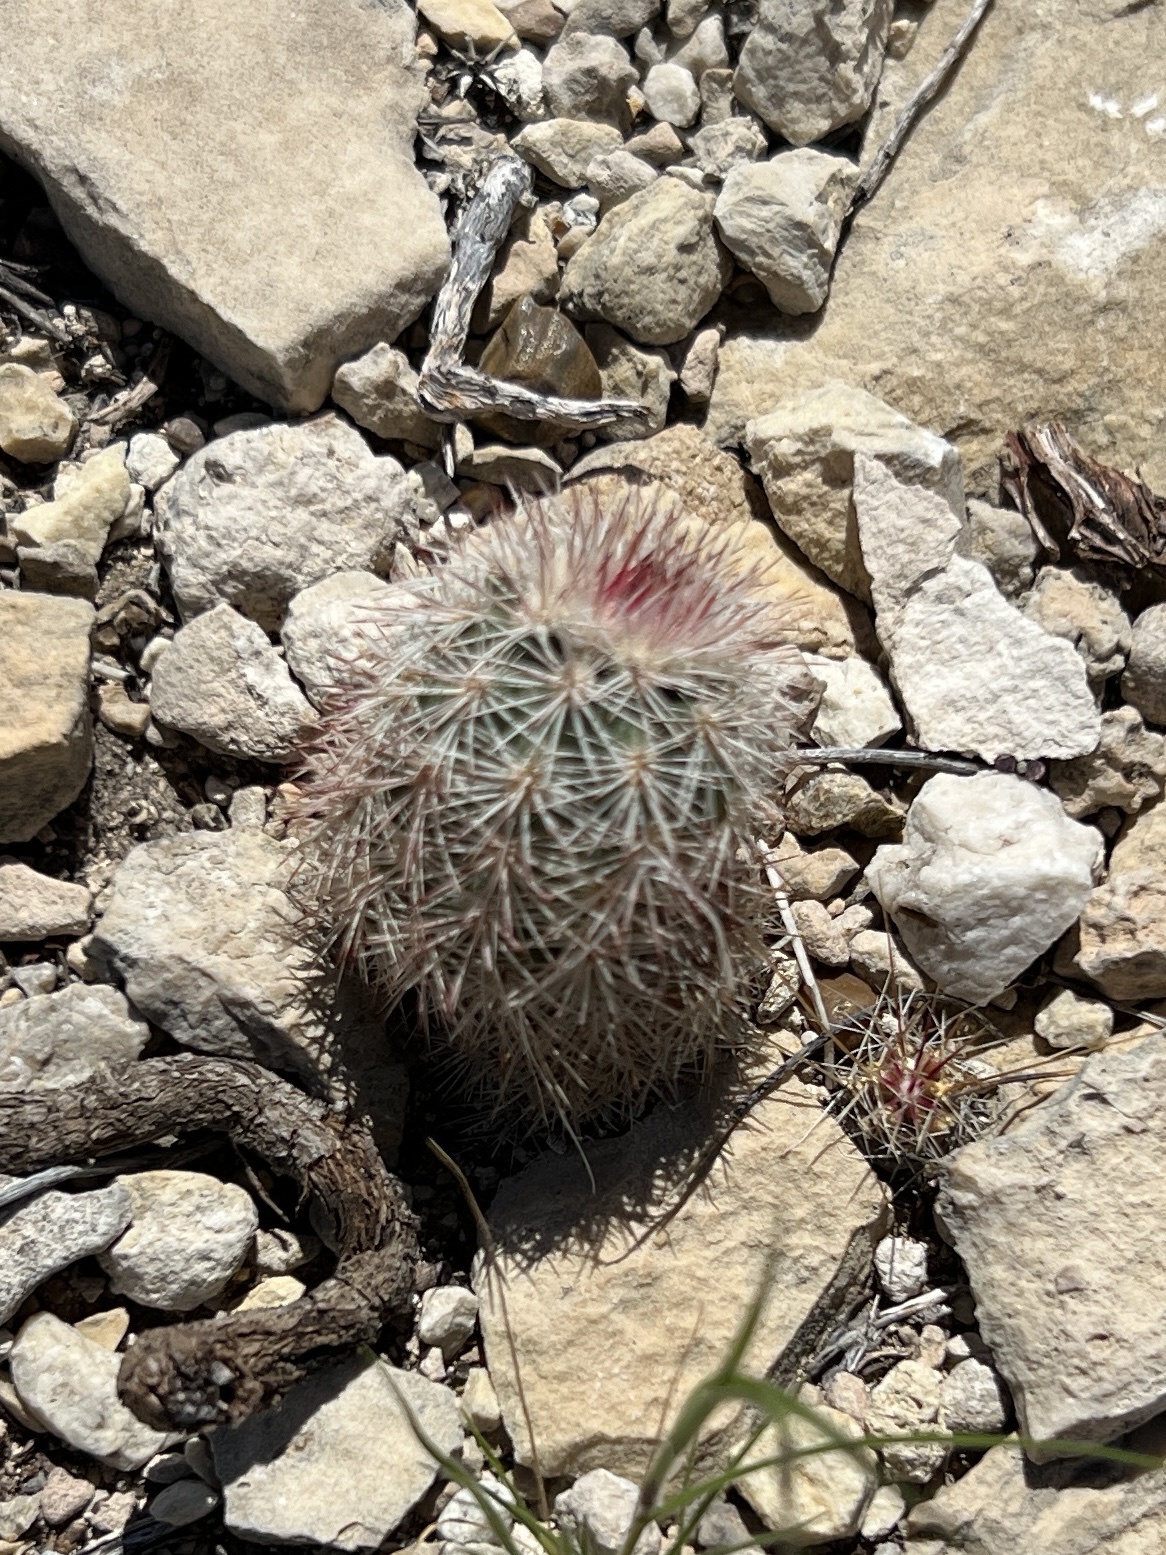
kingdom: Plantae
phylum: Tracheophyta
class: Magnoliopsida
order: Caryophyllales
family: Cactaceae
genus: Echinocereus
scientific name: Echinocereus dasyacanthus
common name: Spiny hedgehog cactus
